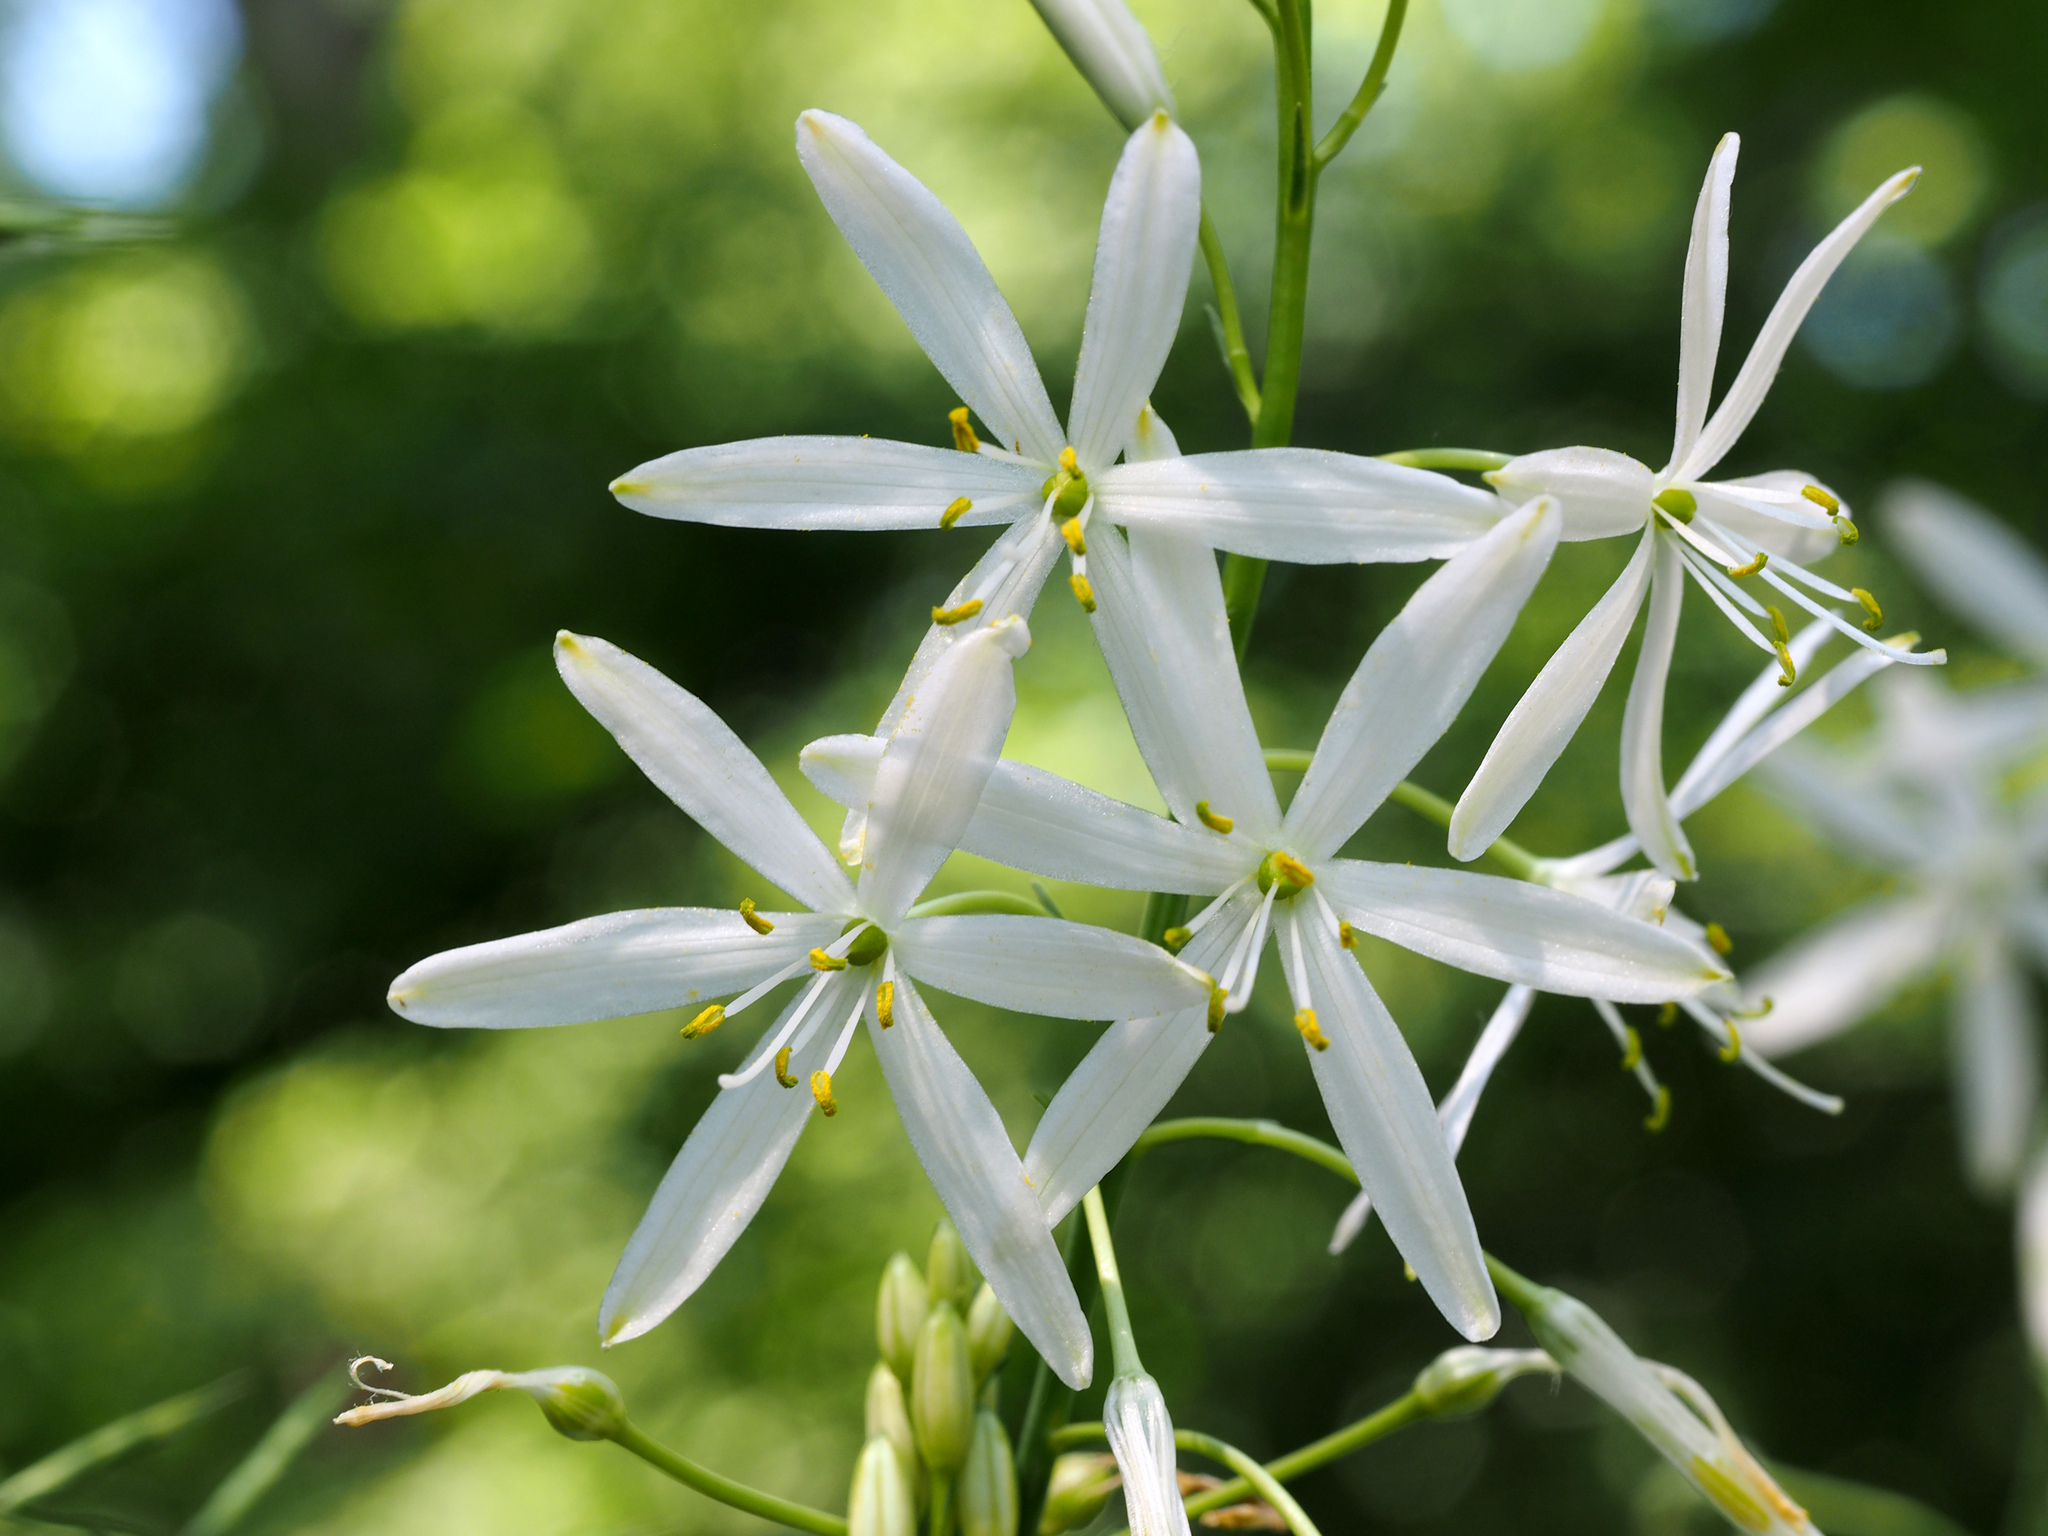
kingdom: Plantae
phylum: Tracheophyta
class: Liliopsida
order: Asparagales
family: Asparagaceae
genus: Anthericum
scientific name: Anthericum liliago
